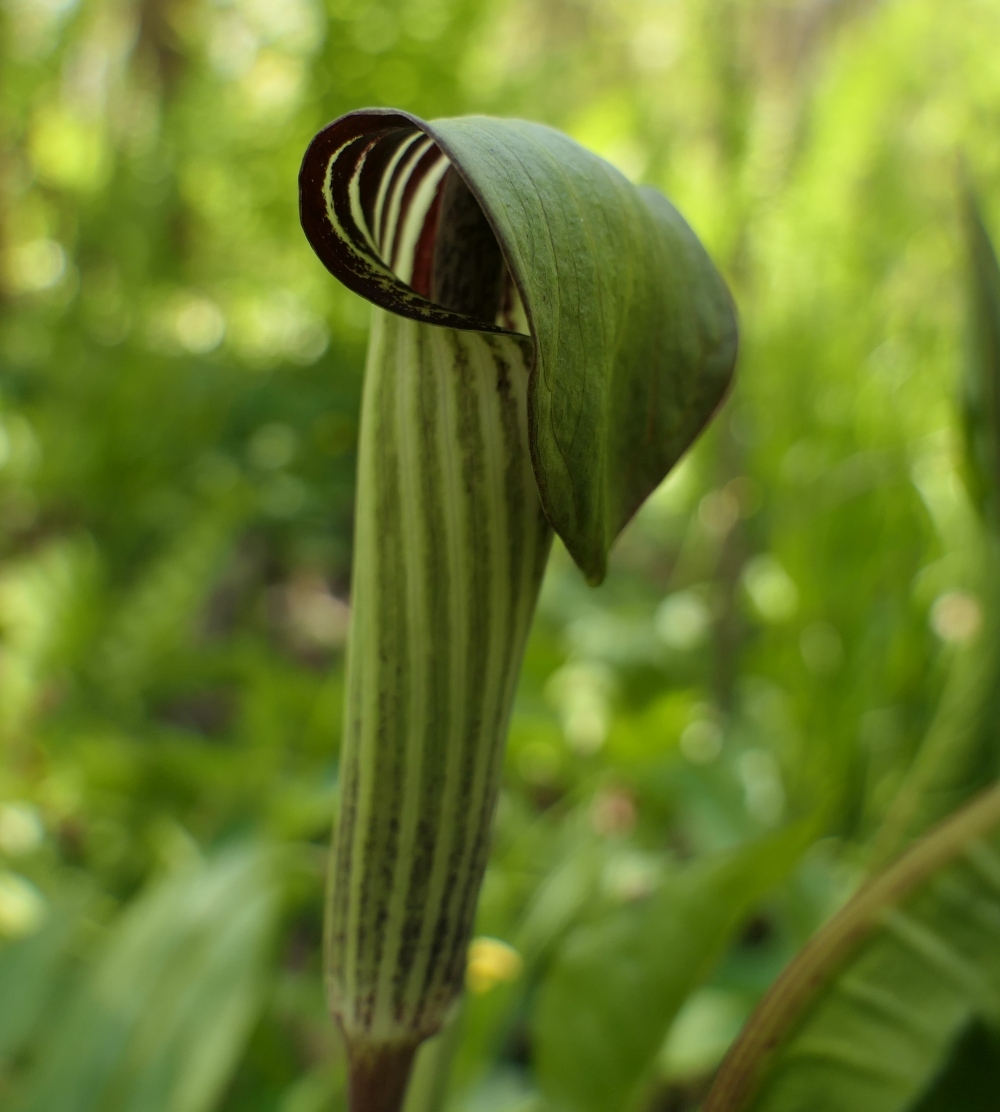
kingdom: Plantae
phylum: Tracheophyta
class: Liliopsida
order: Alismatales
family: Araceae
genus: Arisaema
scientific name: Arisaema triphyllum
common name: Jack-in-the-pulpit
